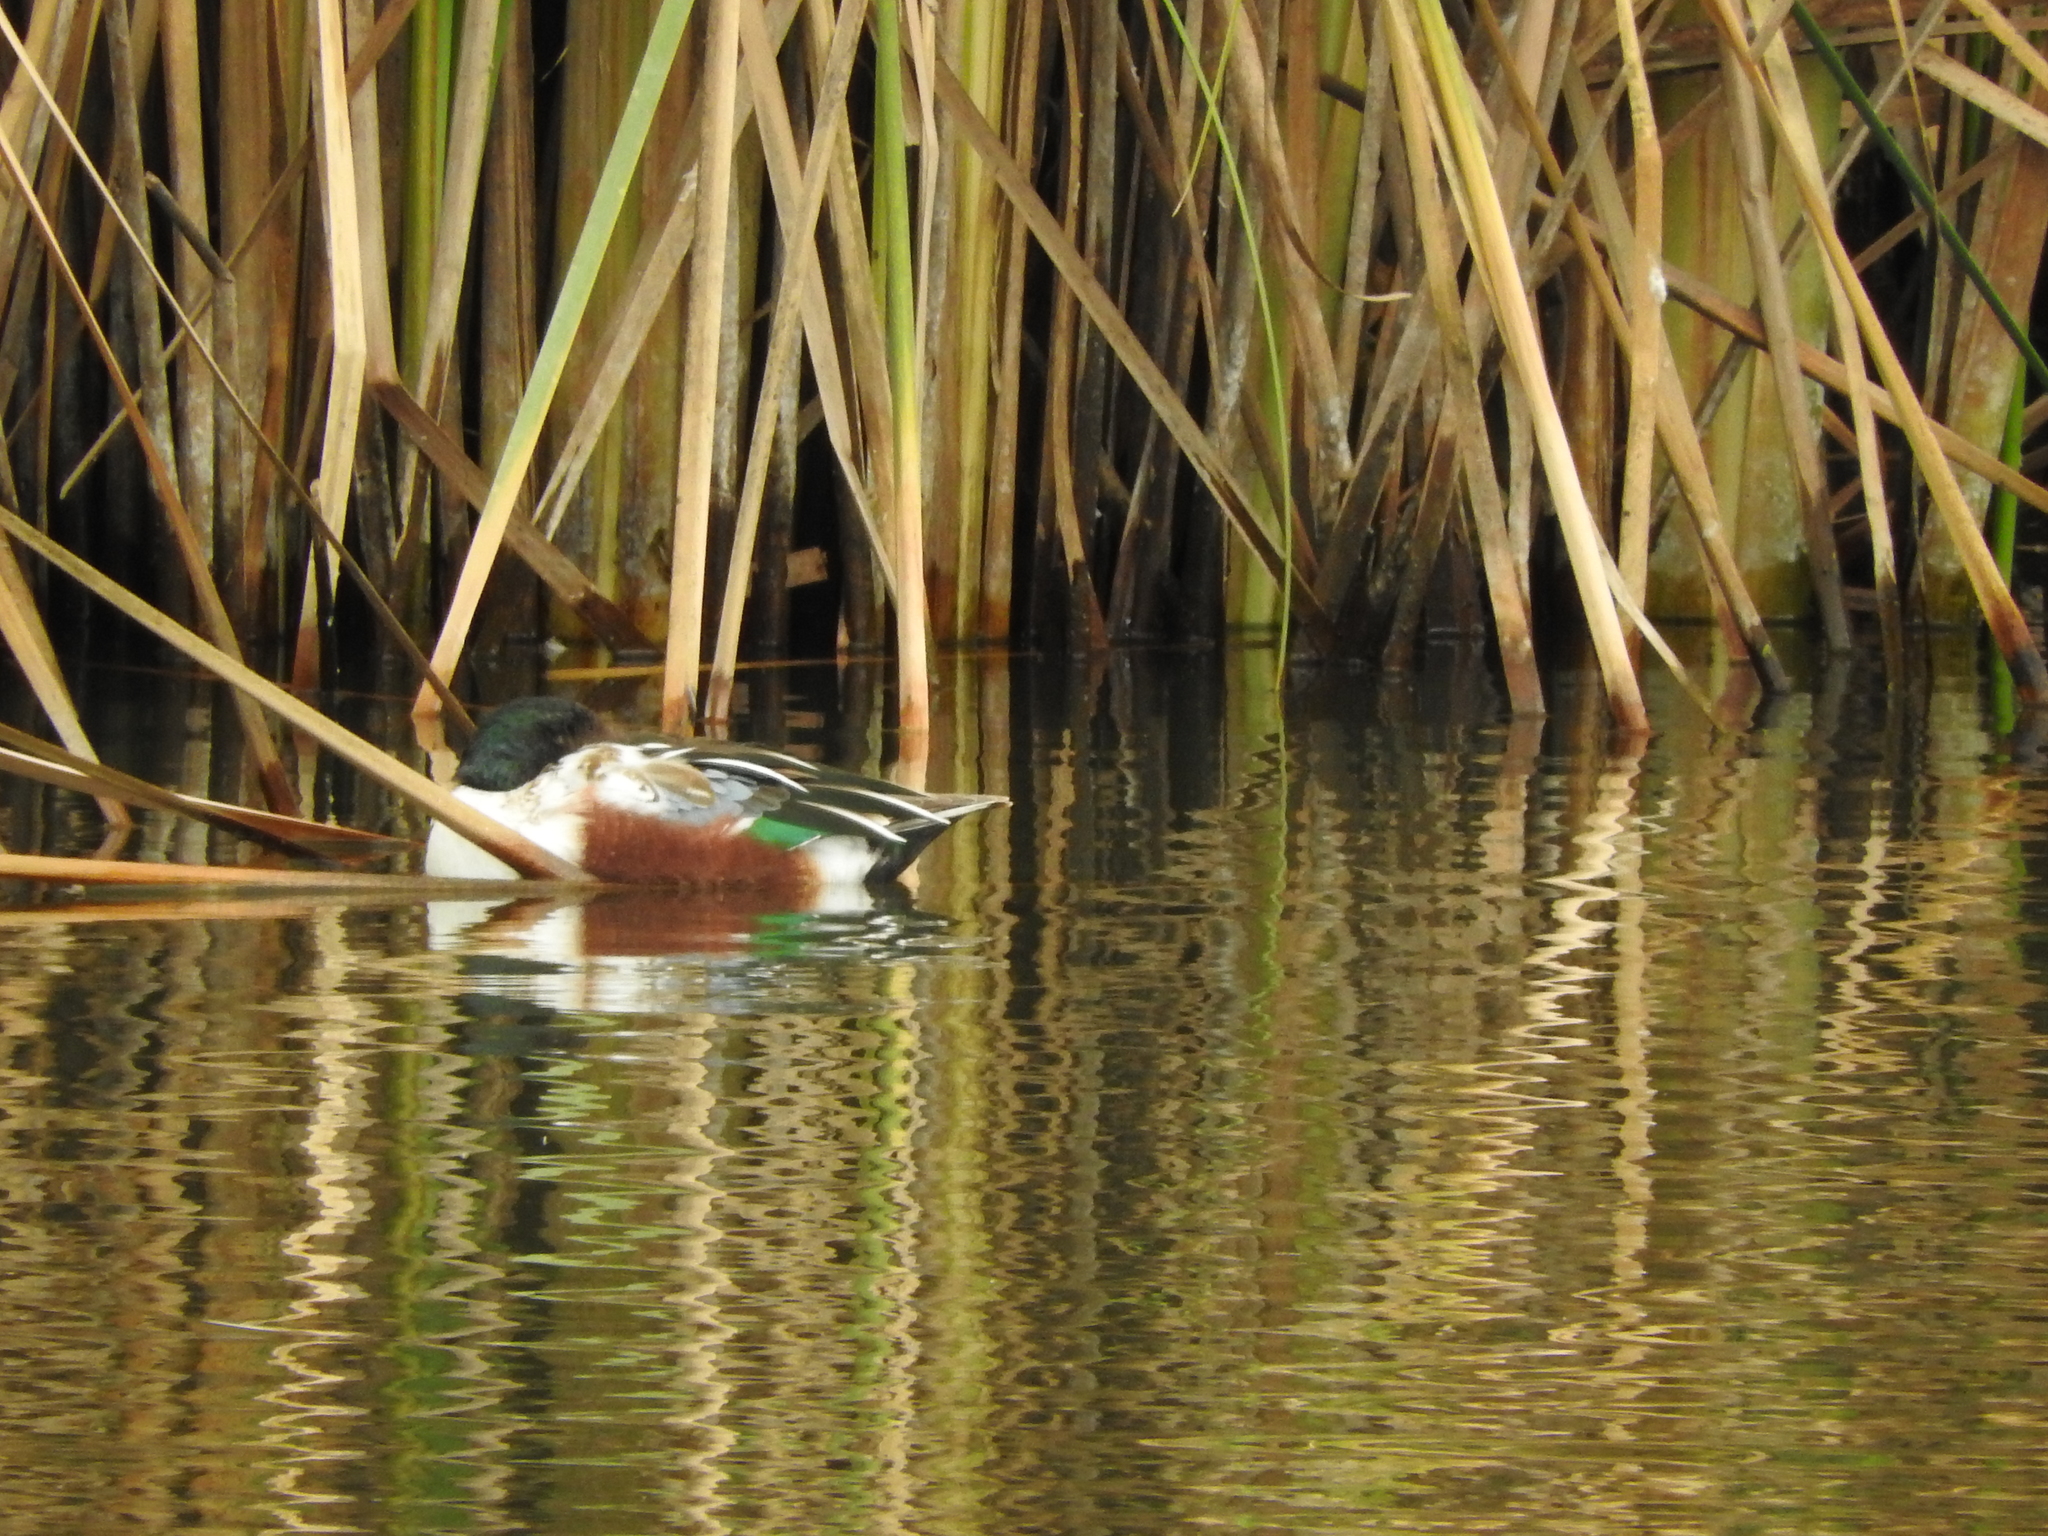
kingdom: Animalia
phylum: Chordata
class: Aves
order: Anseriformes
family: Anatidae
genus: Spatula
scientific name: Spatula clypeata
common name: Northern shoveler
